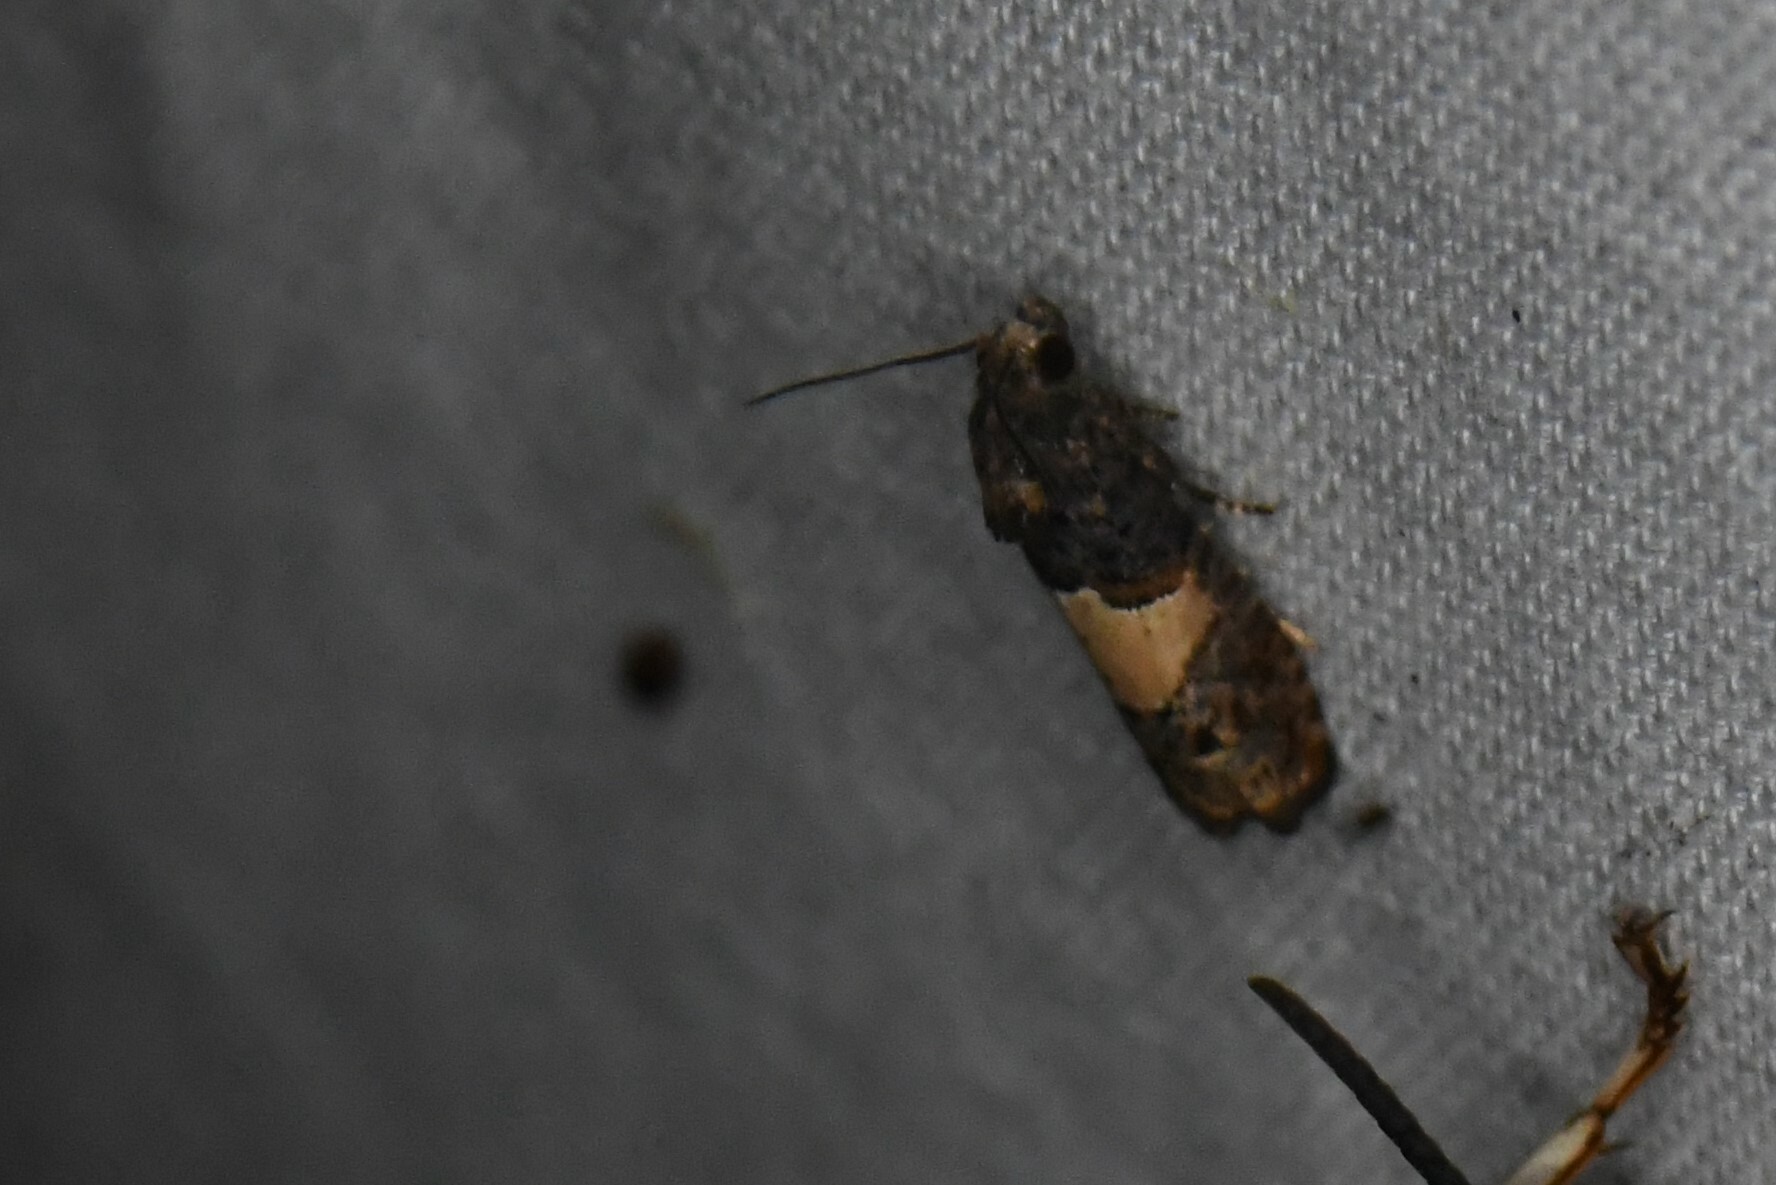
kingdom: Animalia
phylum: Arthropoda
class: Insecta
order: Lepidoptera
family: Tortricidae
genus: Epiblema
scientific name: Epiblema glenni
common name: Glenn's epiblema
